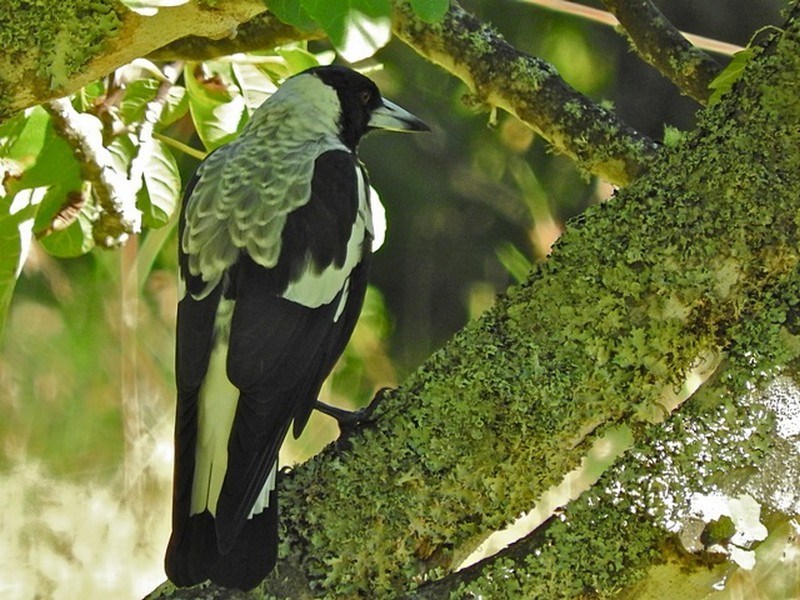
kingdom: Animalia
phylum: Chordata
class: Aves
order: Passeriformes
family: Cracticidae
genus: Gymnorhina
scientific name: Gymnorhina tibicen
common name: Australian magpie
